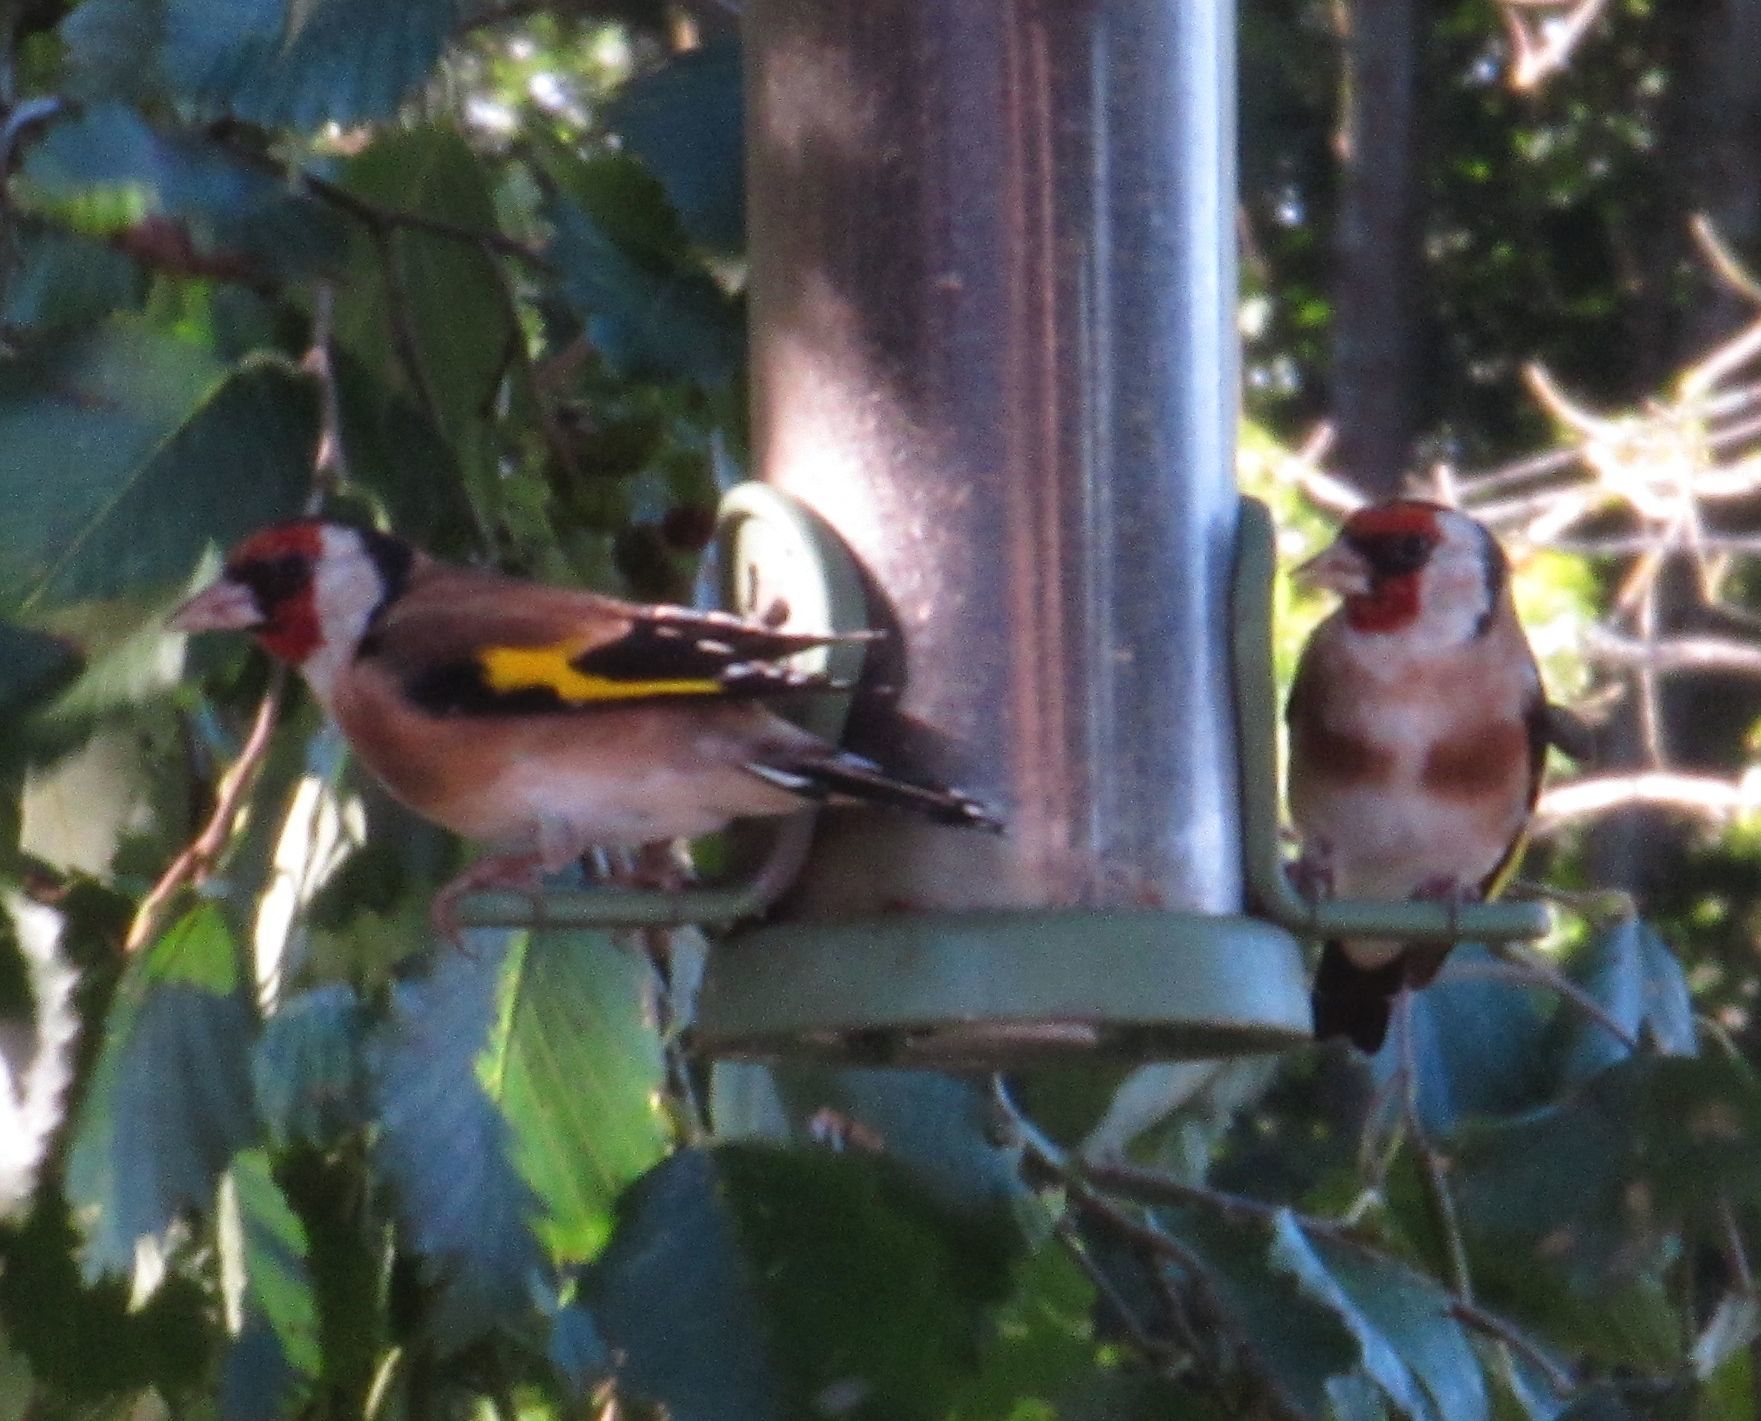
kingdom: Animalia
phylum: Chordata
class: Aves
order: Passeriformes
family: Fringillidae
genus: Carduelis
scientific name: Carduelis carduelis
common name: European goldfinch
